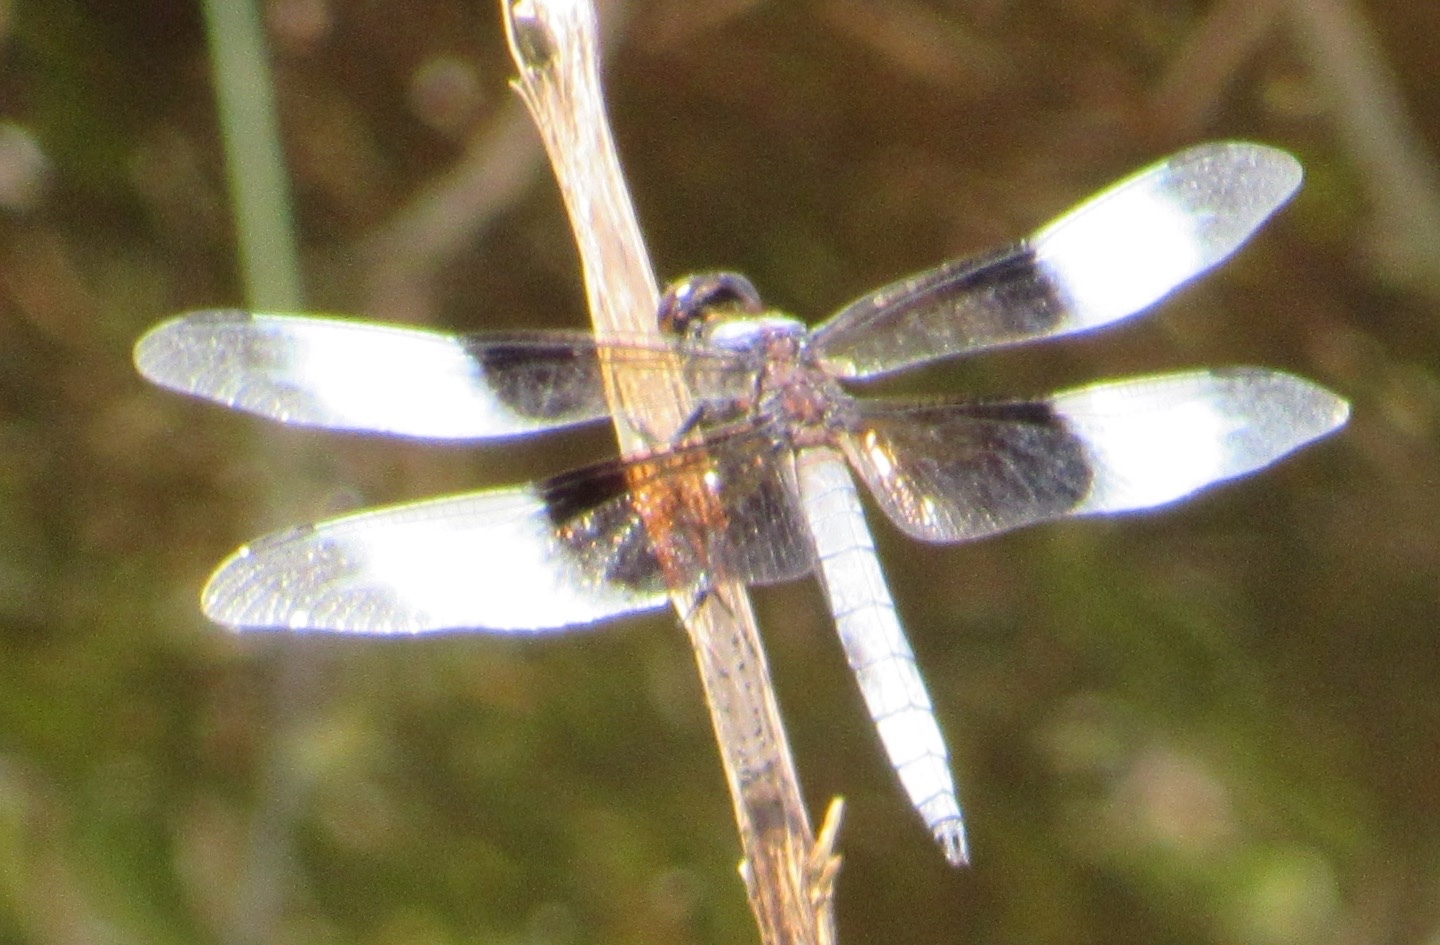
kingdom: Animalia
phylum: Arthropoda
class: Insecta
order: Odonata
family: Libellulidae
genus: Libellula
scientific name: Libellula luctuosa
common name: Widow skimmer
